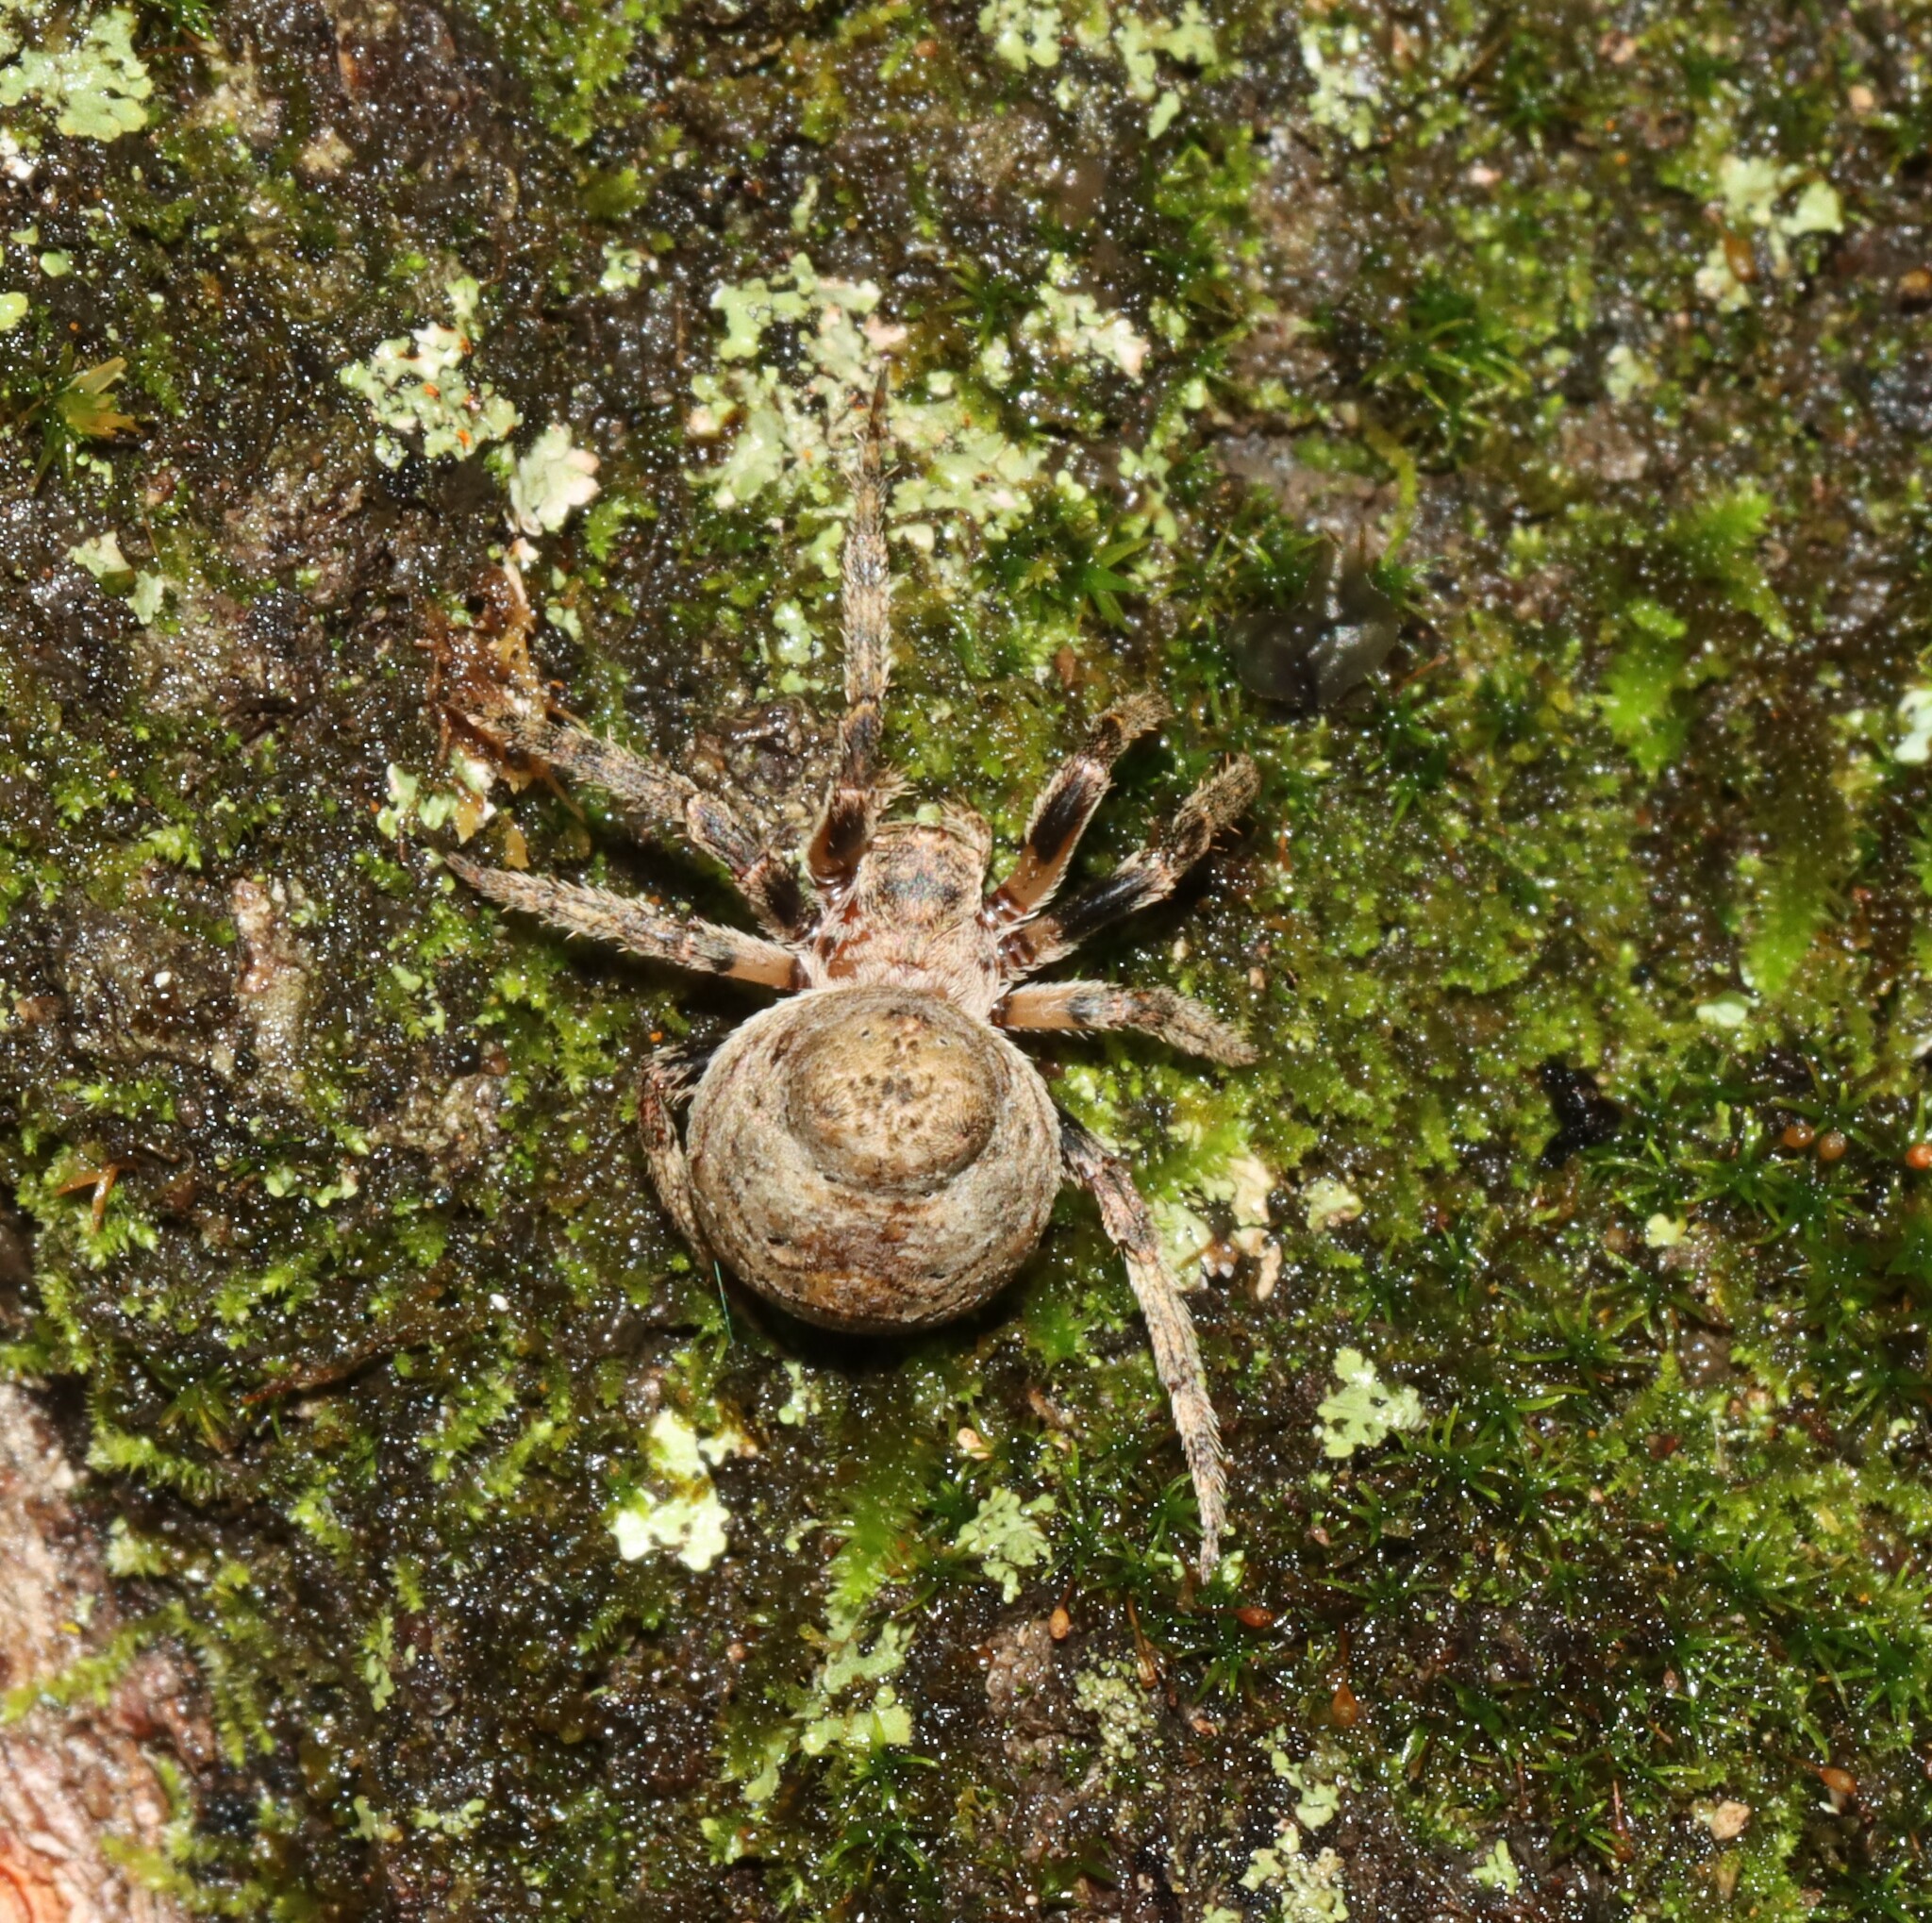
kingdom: Animalia
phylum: Arthropoda
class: Arachnida
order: Araneae
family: Araneidae
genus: Ocrepeira
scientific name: Ocrepeira ectypa
